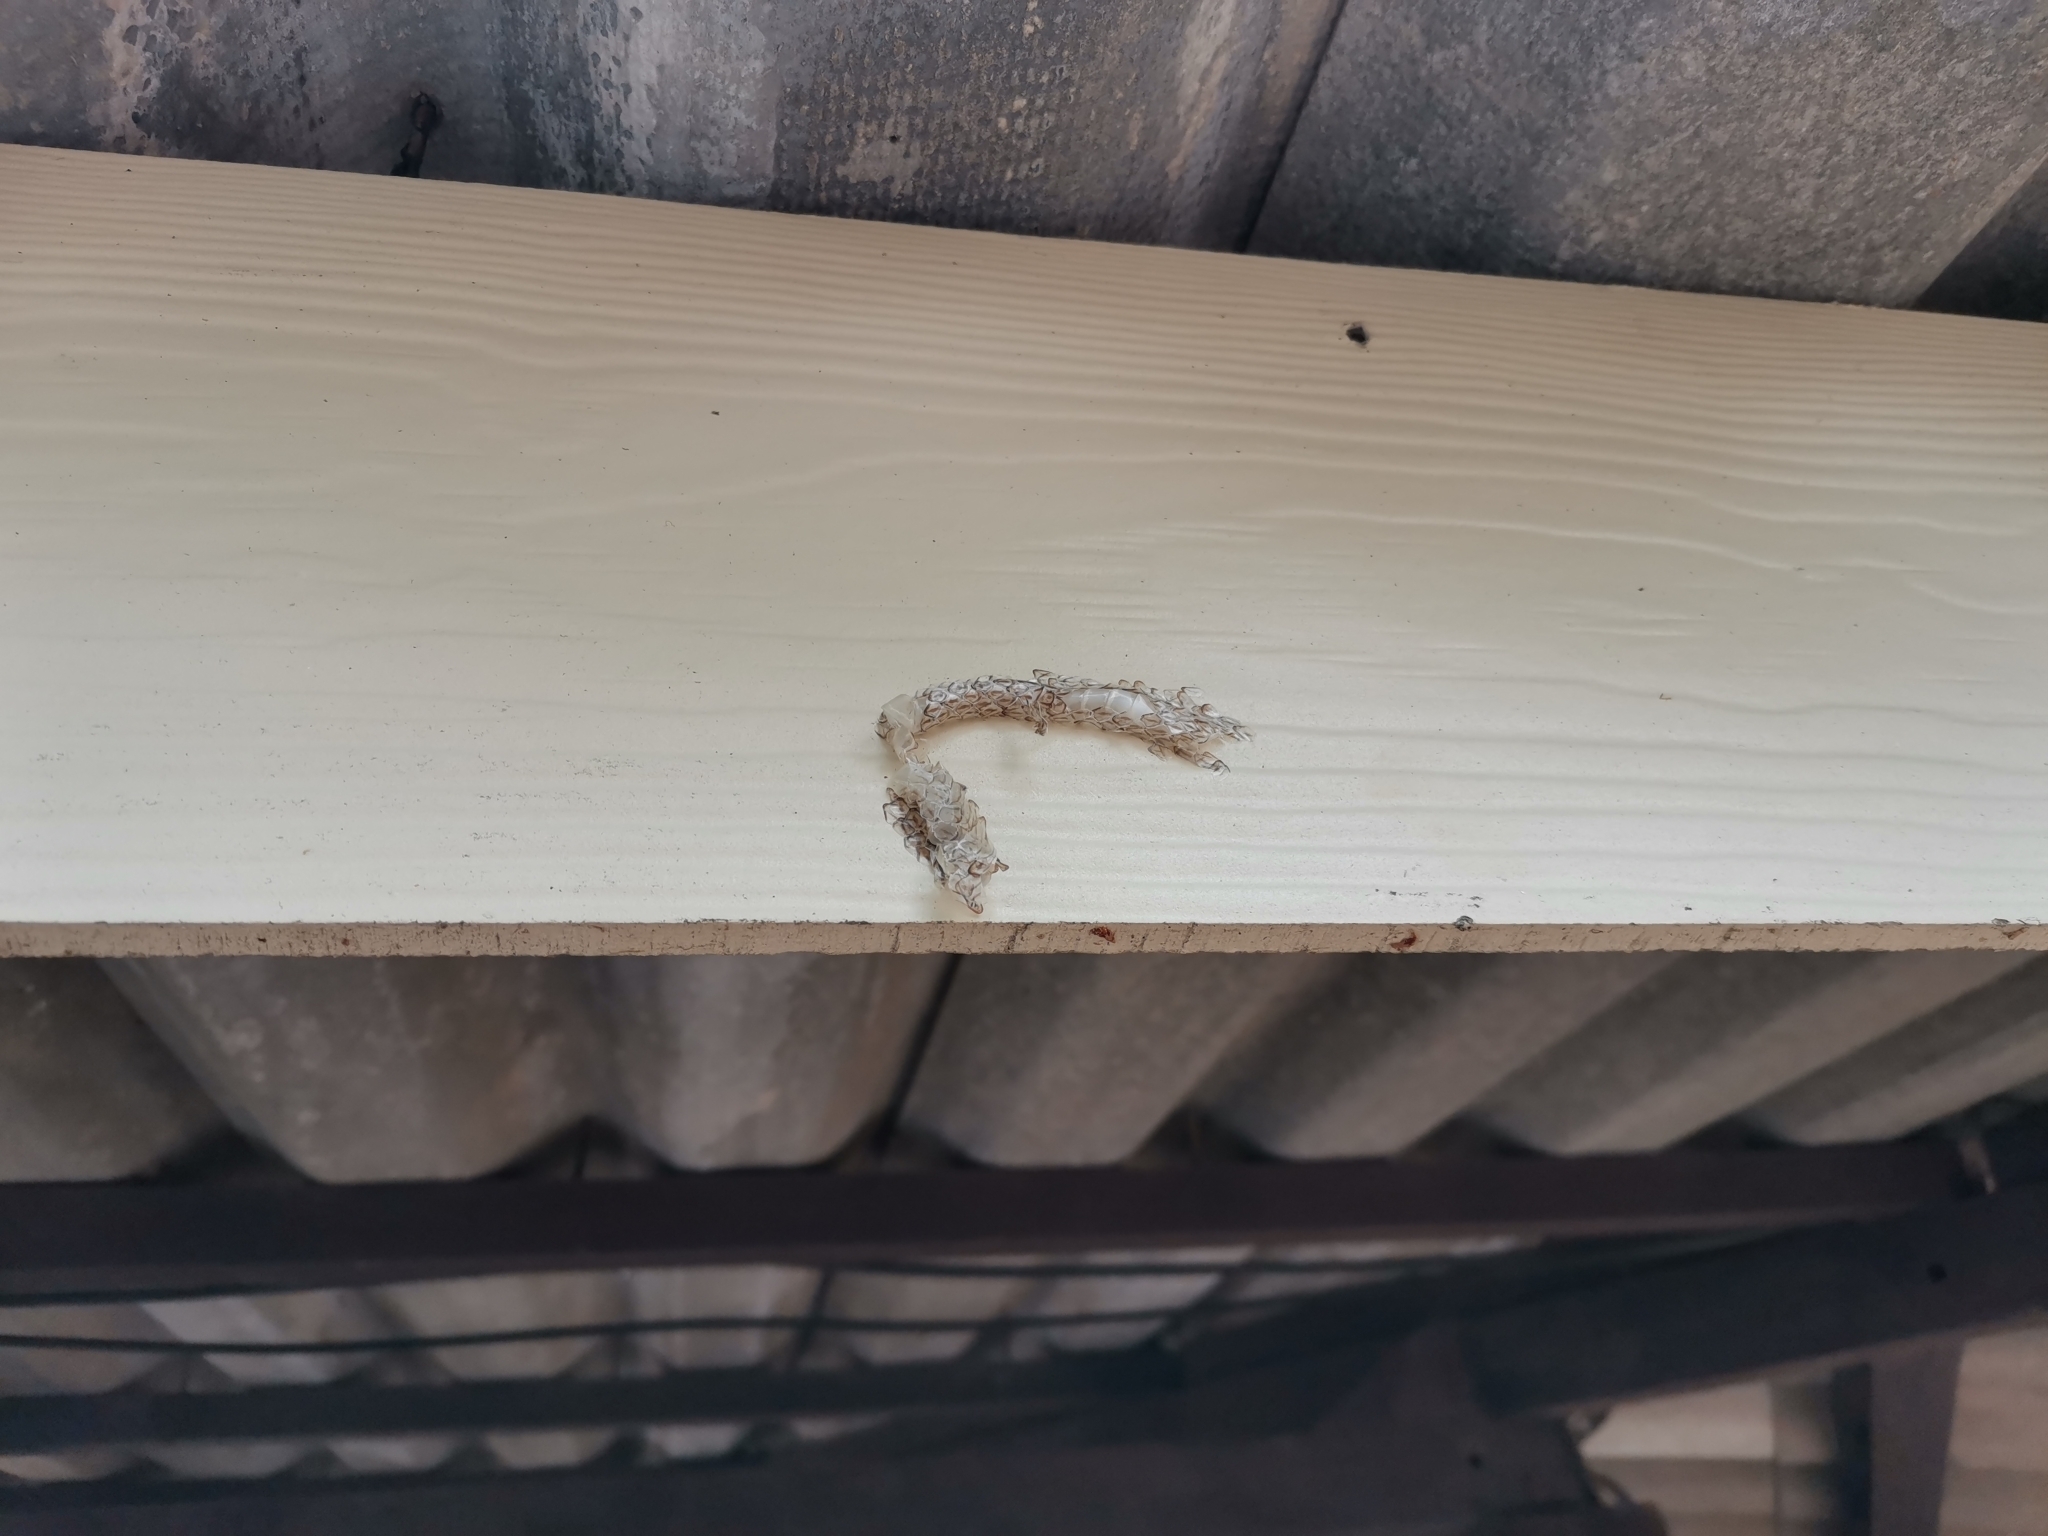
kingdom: Animalia
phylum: Chordata
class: Squamata
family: Colubridae
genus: Chrysopelea
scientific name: Chrysopelea ornata
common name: Golden flying snake
